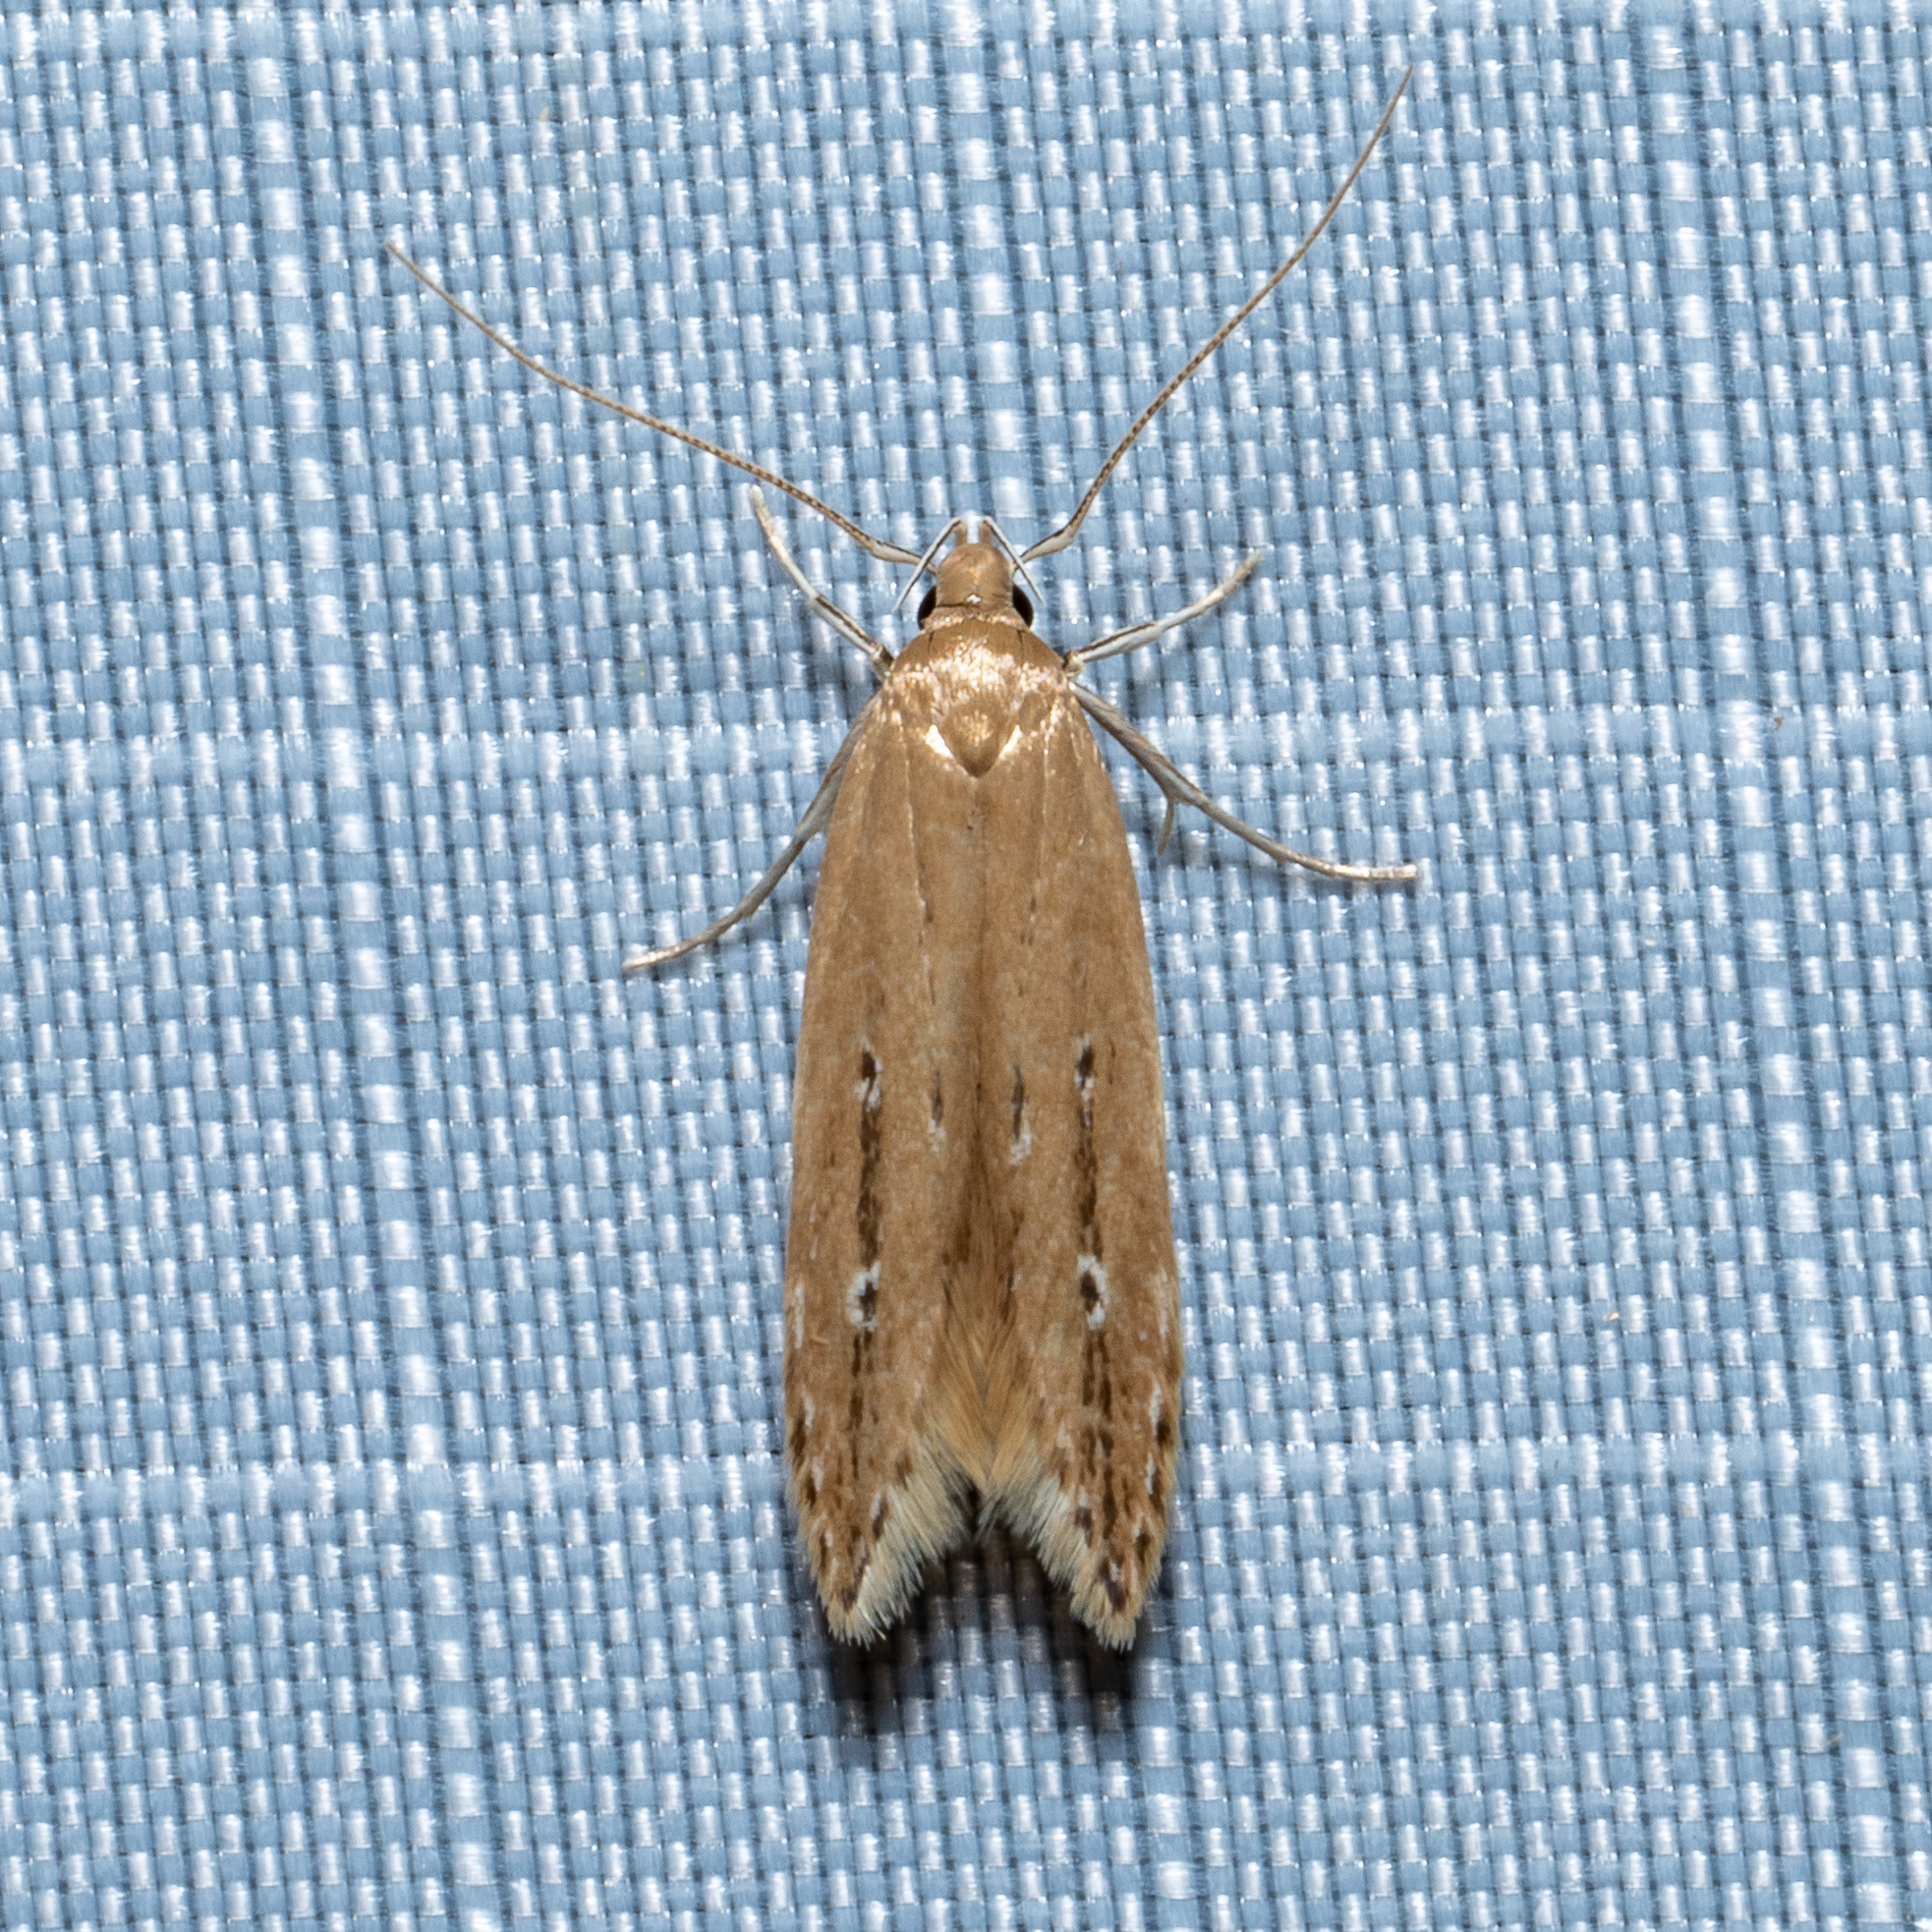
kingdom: Animalia
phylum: Arthropoda
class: Insecta
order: Lepidoptera
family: Cosmopterigidae
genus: Limnaecia
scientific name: Limnaecia phragmitella
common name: Bulrush cosmet
